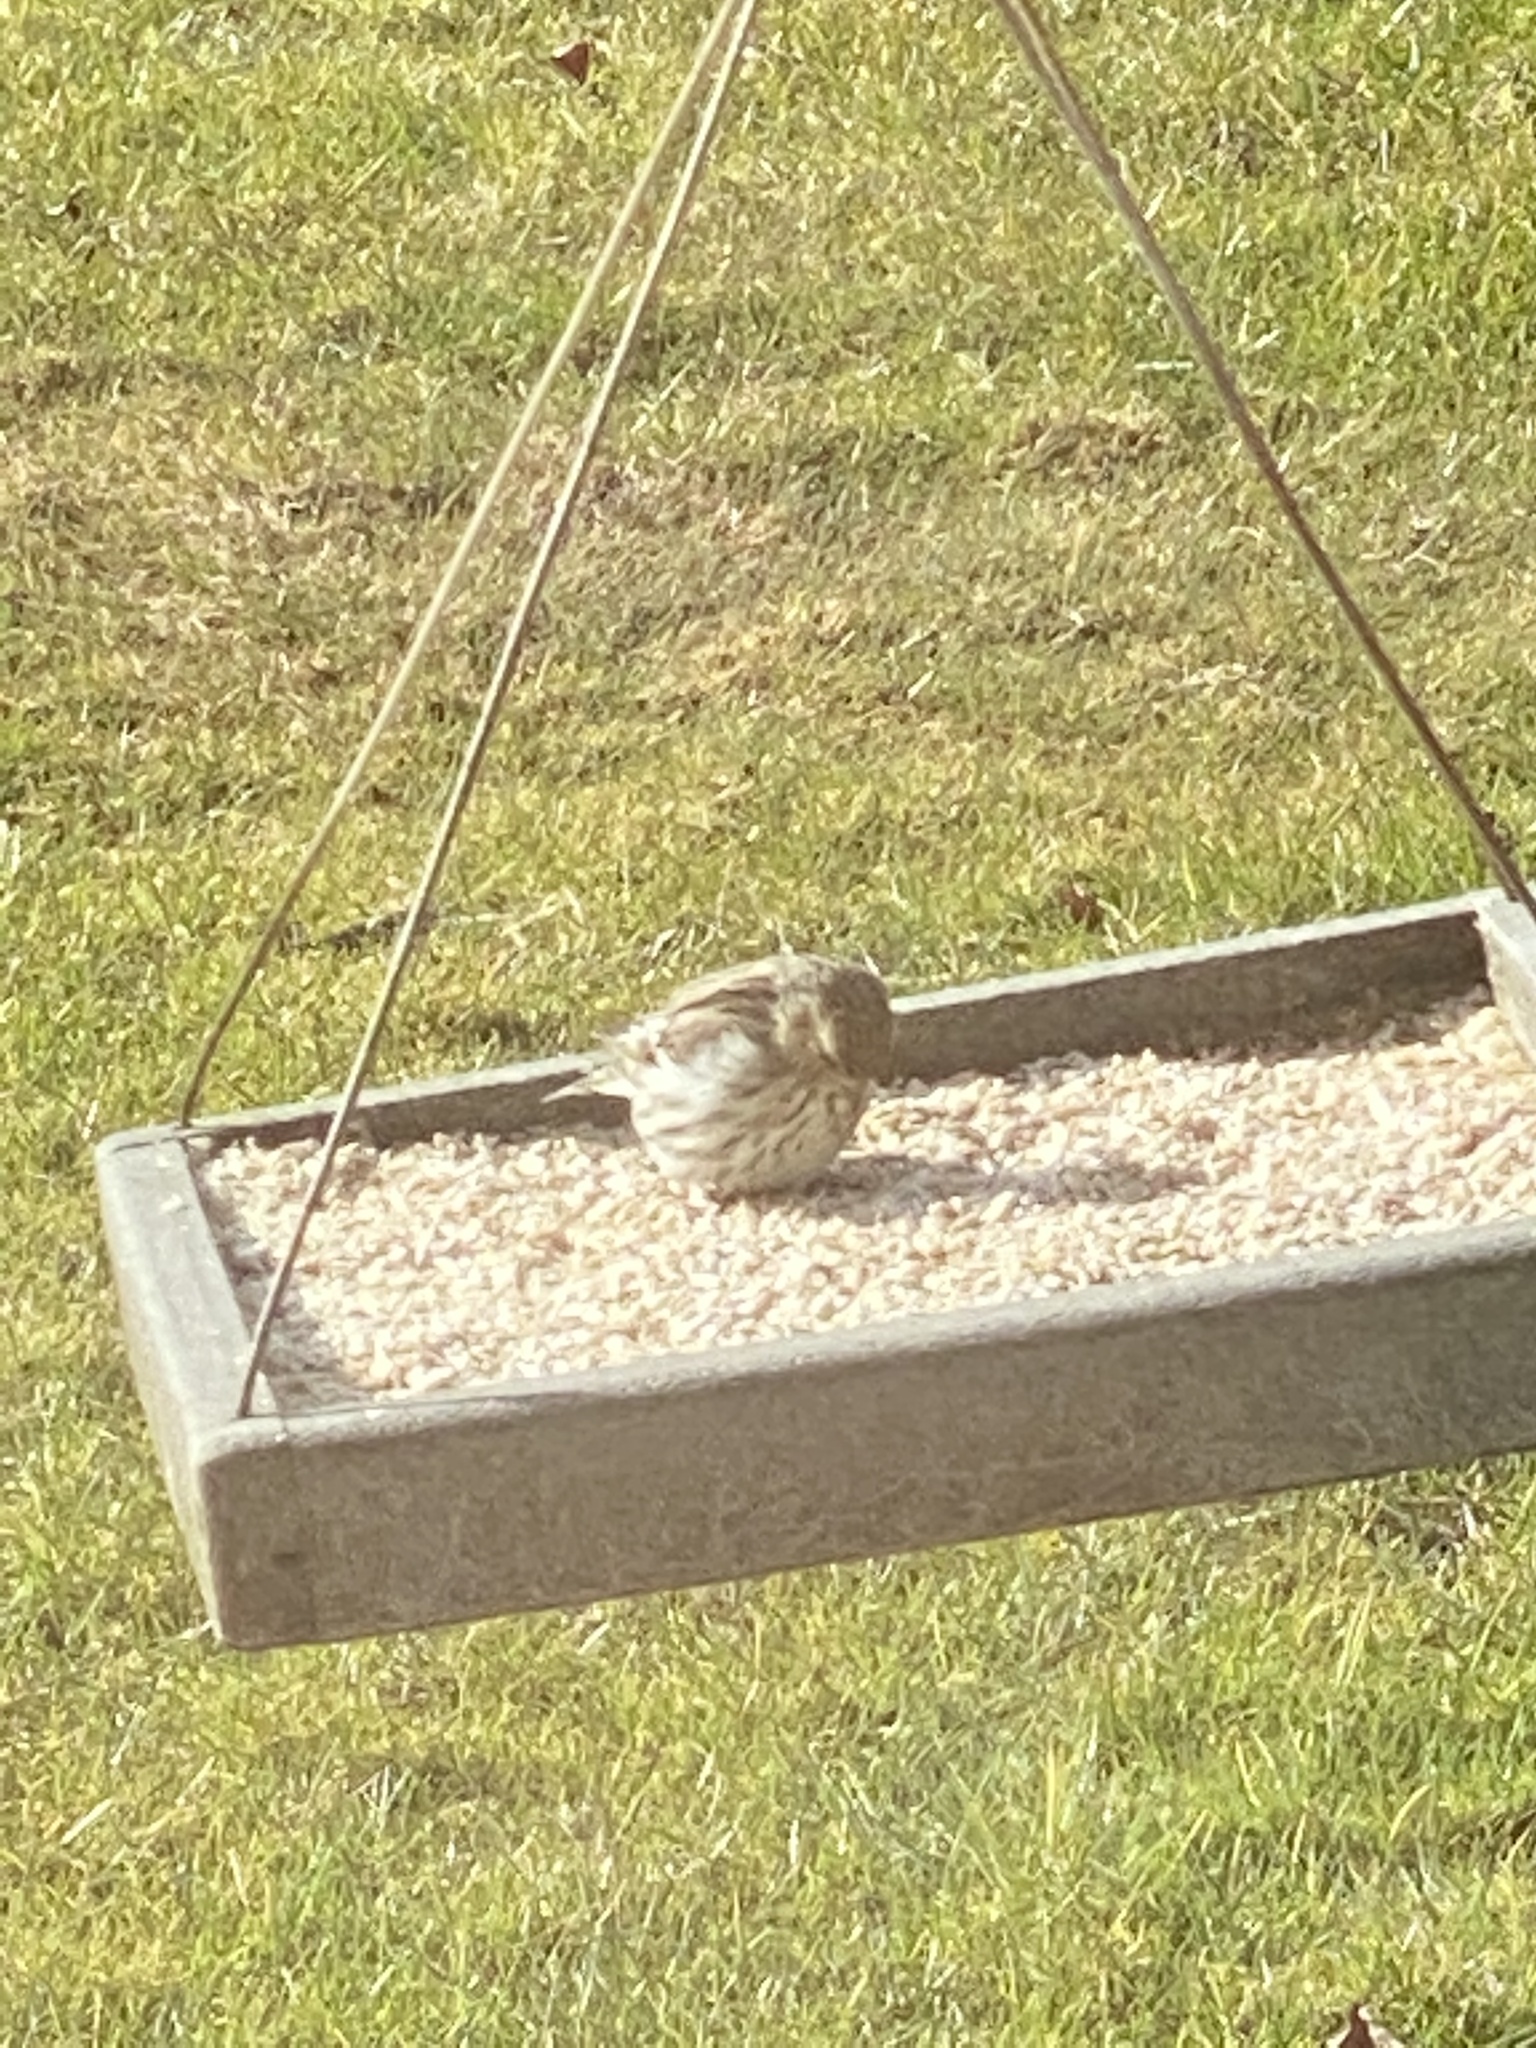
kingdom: Animalia
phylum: Chordata
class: Aves
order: Passeriformes
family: Fringillidae
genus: Spinus
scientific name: Spinus pinus
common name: Pine siskin
